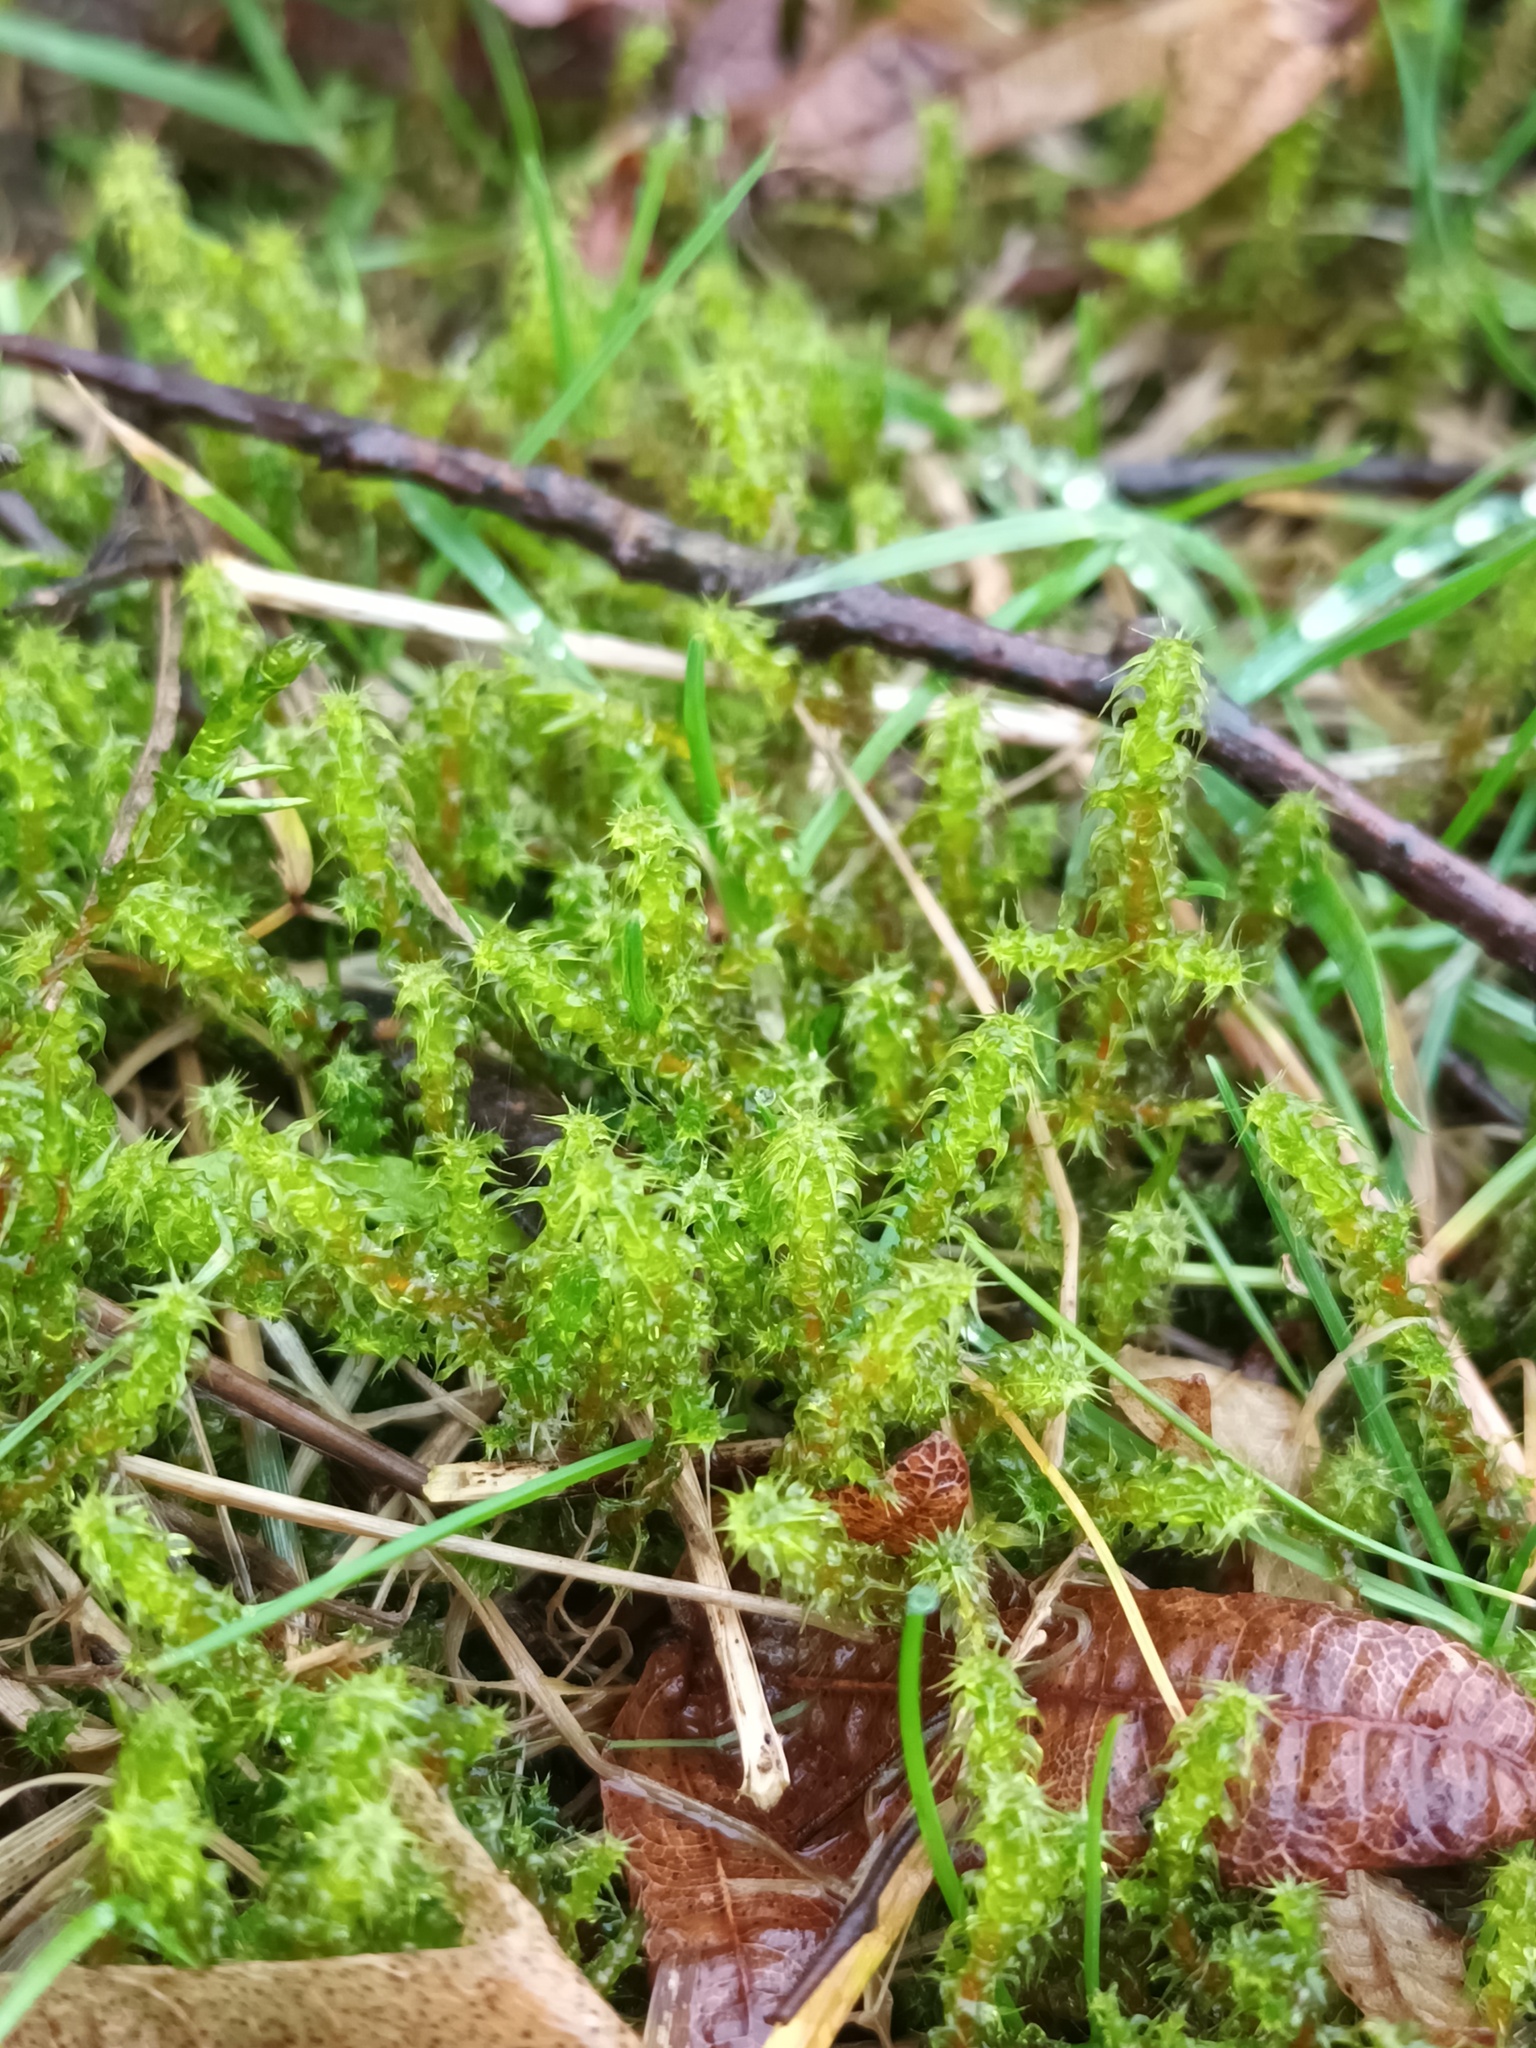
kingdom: Plantae
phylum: Bryophyta
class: Bryopsida
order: Hypnales
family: Hylocomiaceae
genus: Rhytidiadelphus
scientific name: Rhytidiadelphus squarrosus
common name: Springy turf-moss
